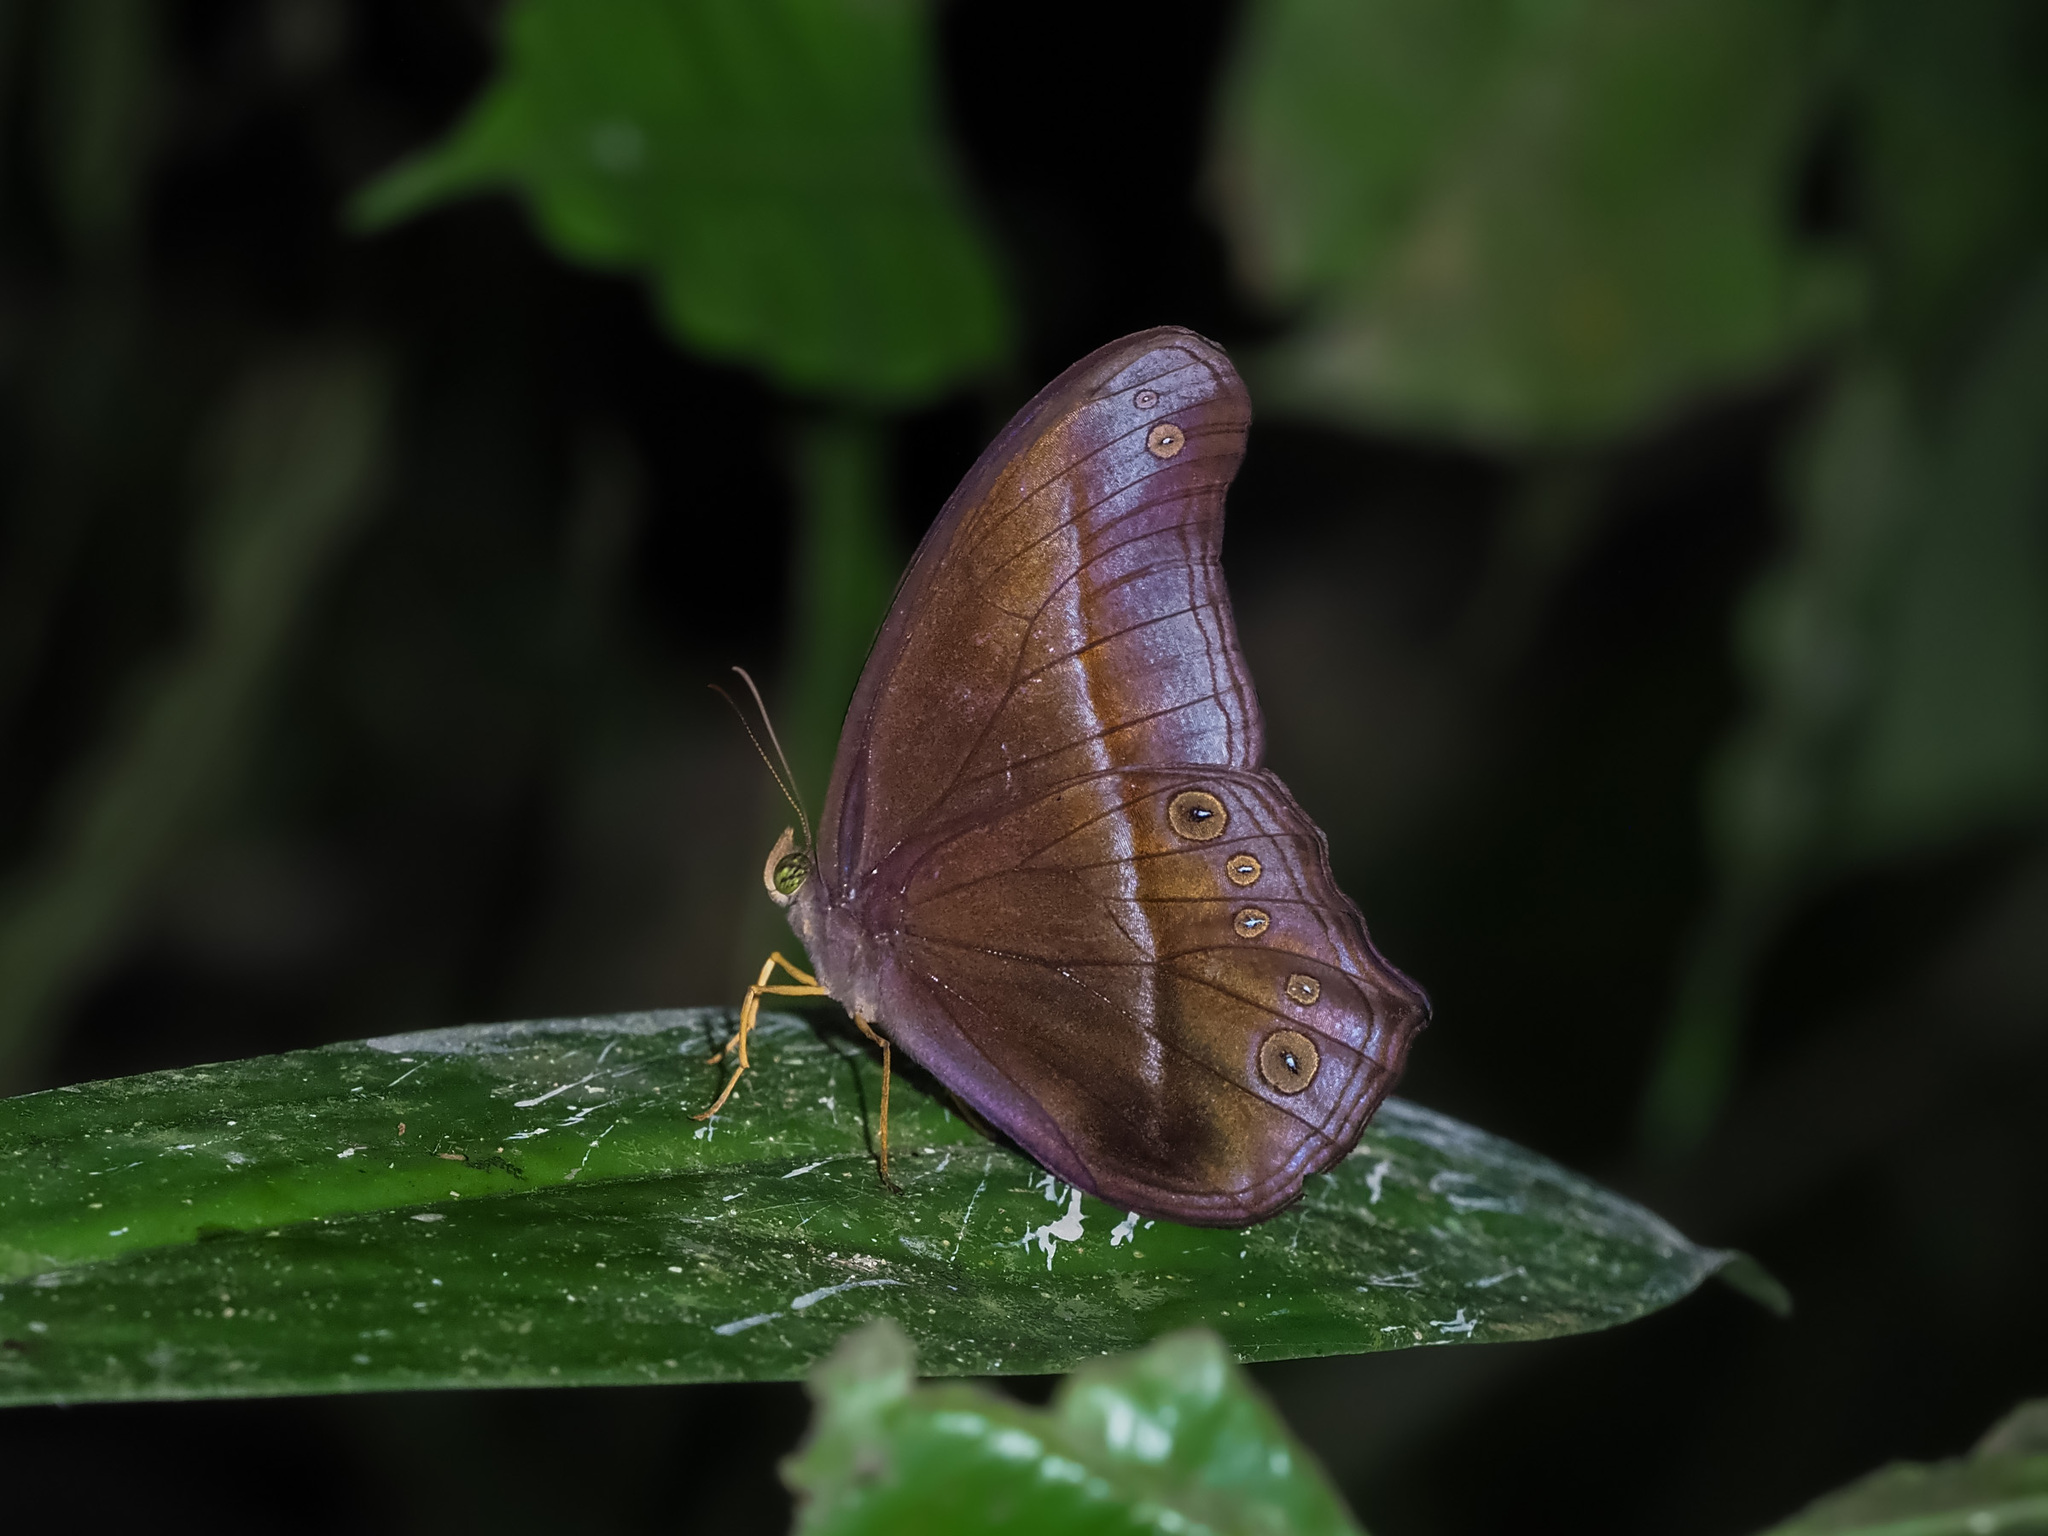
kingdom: Animalia
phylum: Arthropoda
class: Insecta
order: Lepidoptera
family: Nymphalidae
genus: Coelites
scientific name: Coelites epiminthia
